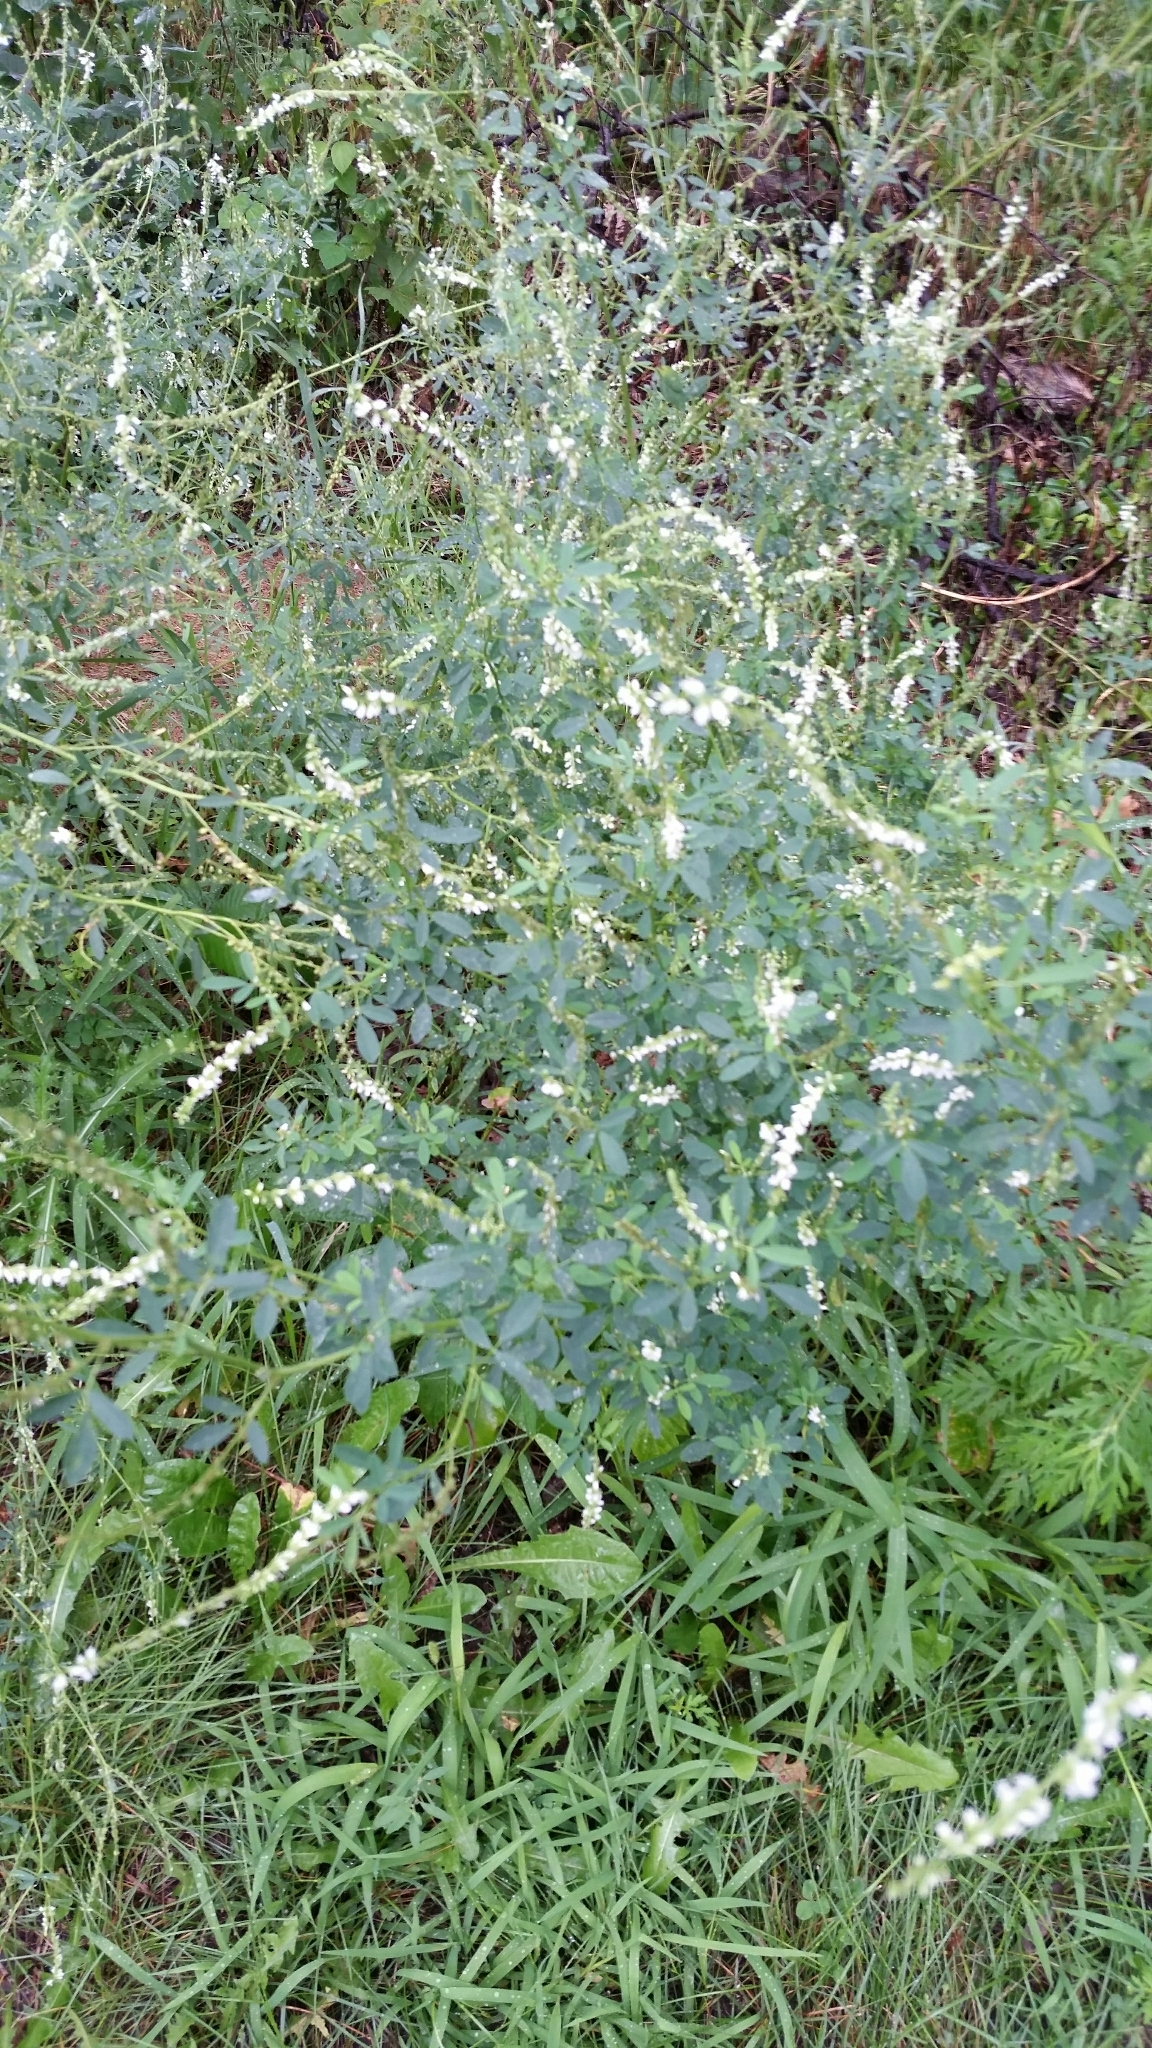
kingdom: Plantae
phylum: Tracheophyta
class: Magnoliopsida
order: Fabales
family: Fabaceae
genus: Melilotus
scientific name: Melilotus albus
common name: White melilot
